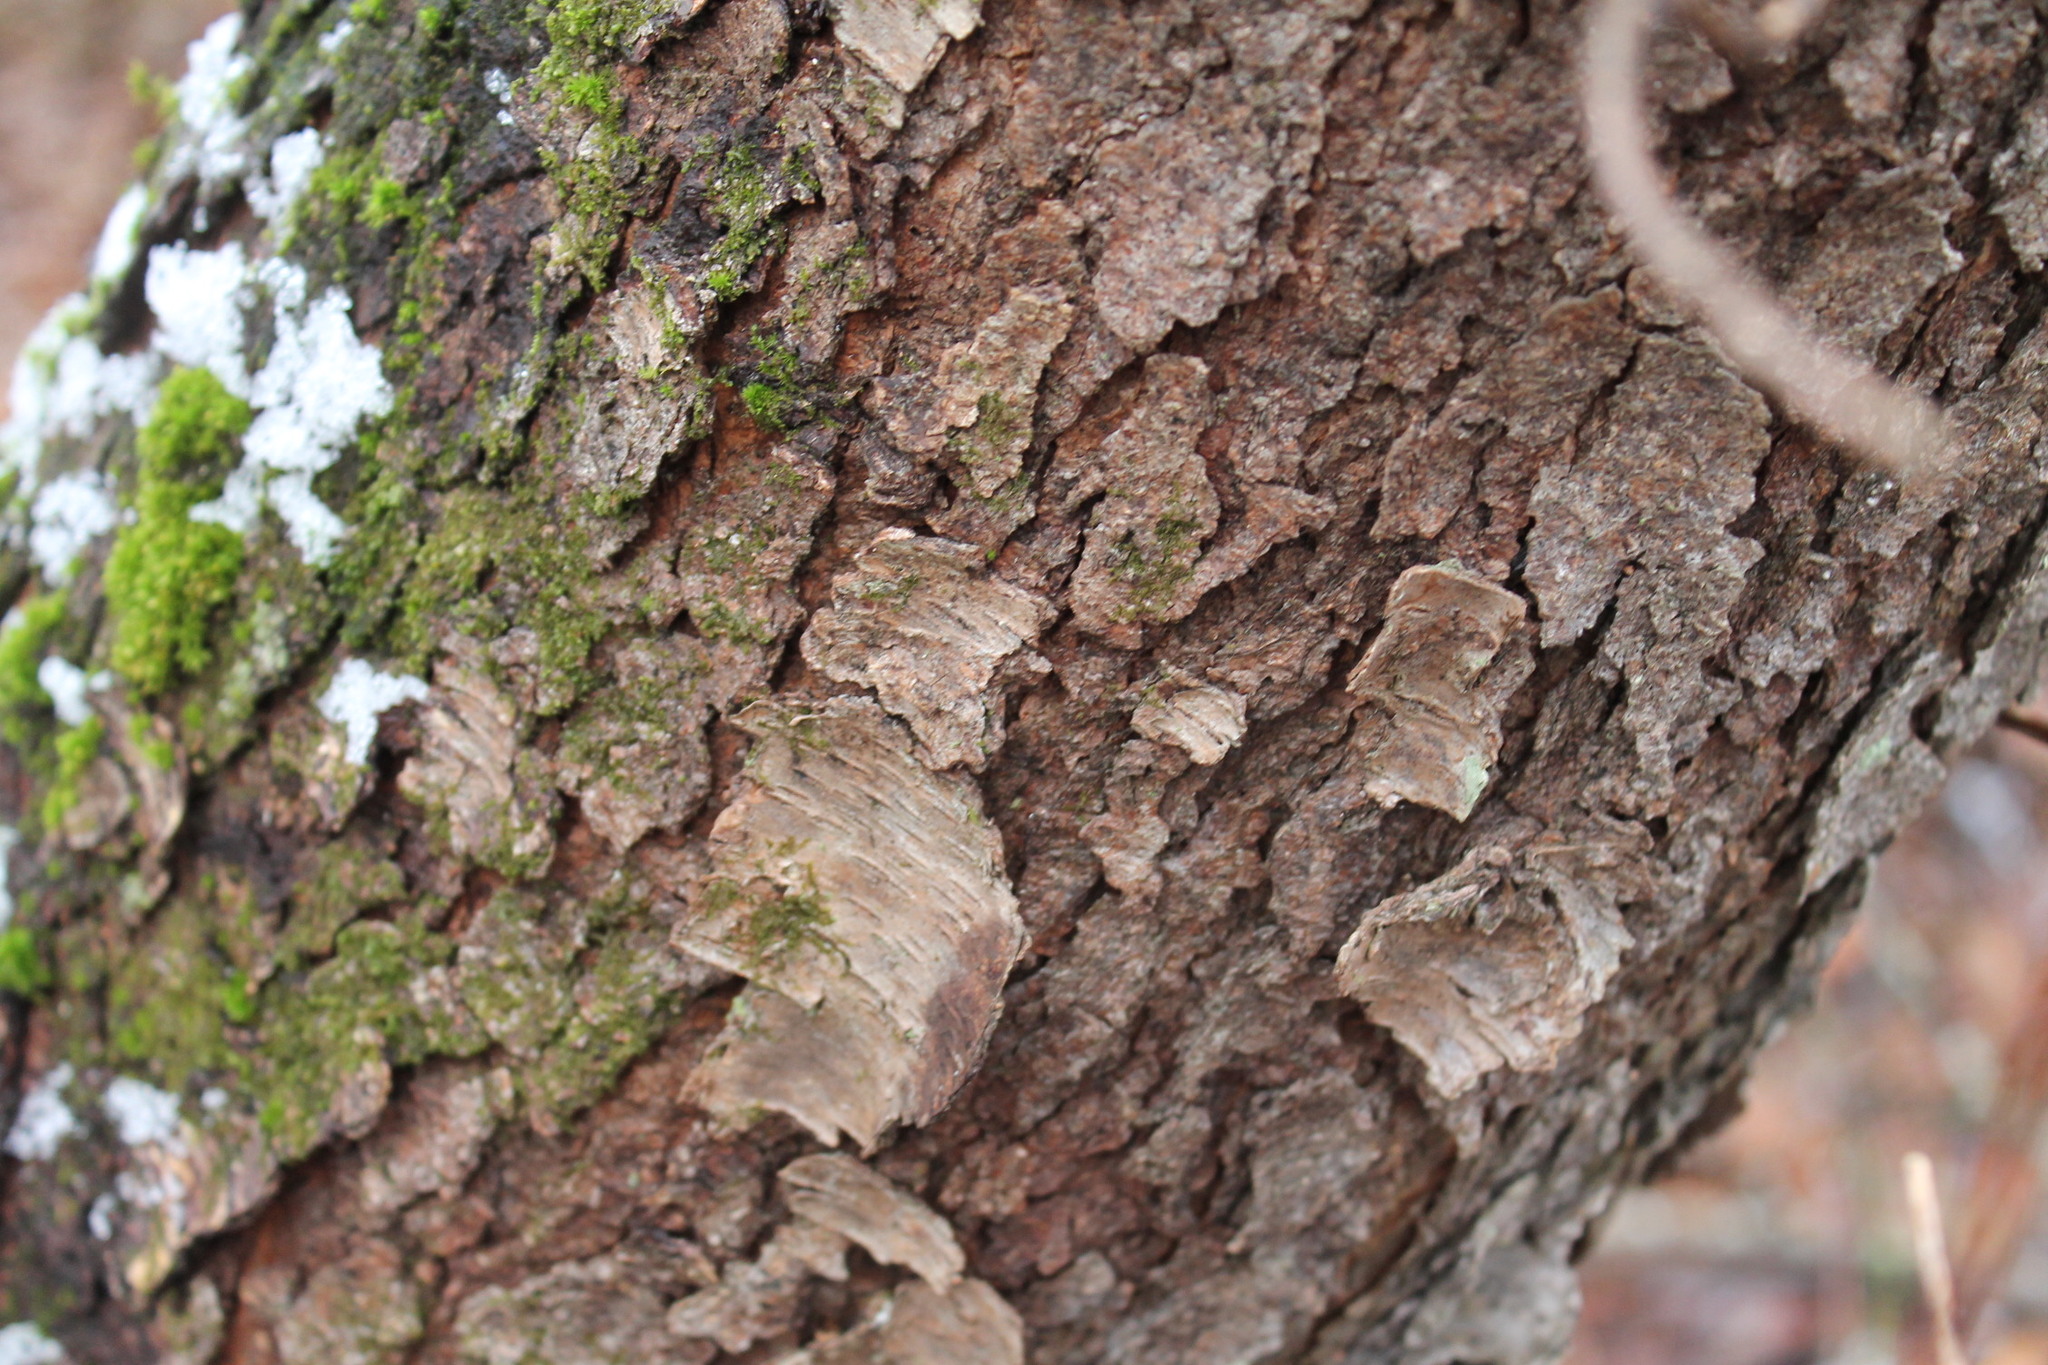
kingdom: Plantae
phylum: Tracheophyta
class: Magnoliopsida
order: Rosales
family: Rosaceae
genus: Prunus
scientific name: Prunus serotina
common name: Black cherry
